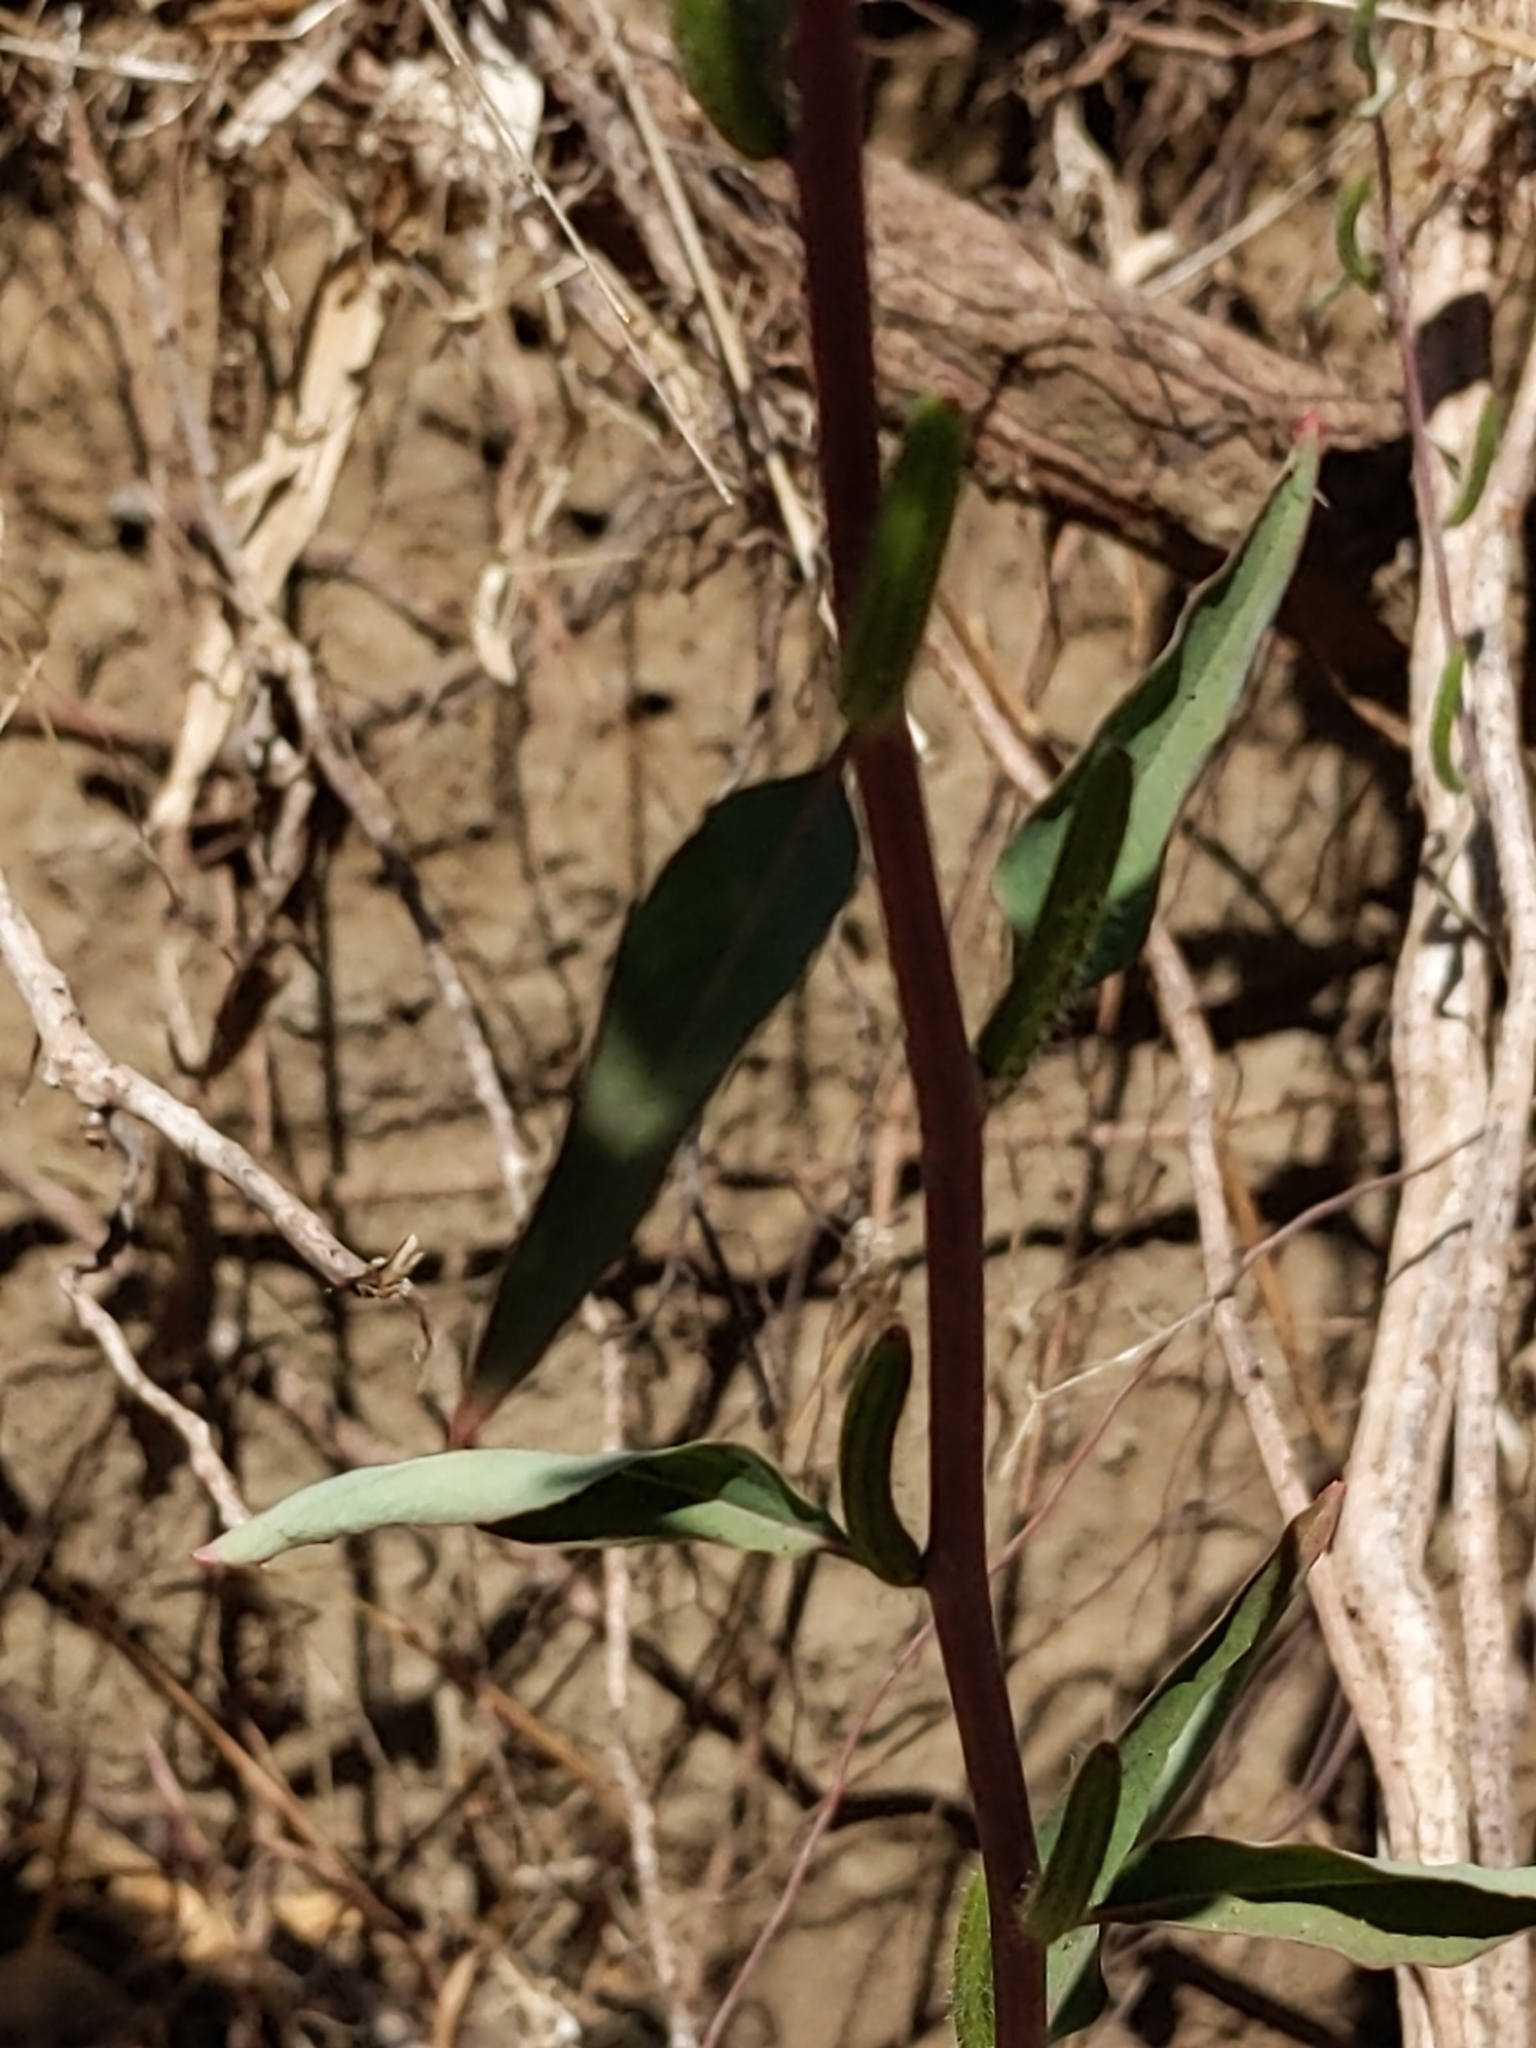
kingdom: Plantae
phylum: Tracheophyta
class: Magnoliopsida
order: Myrtales
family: Onagraceae
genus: Clarkia
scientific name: Clarkia unguiculata
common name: Clarkia
